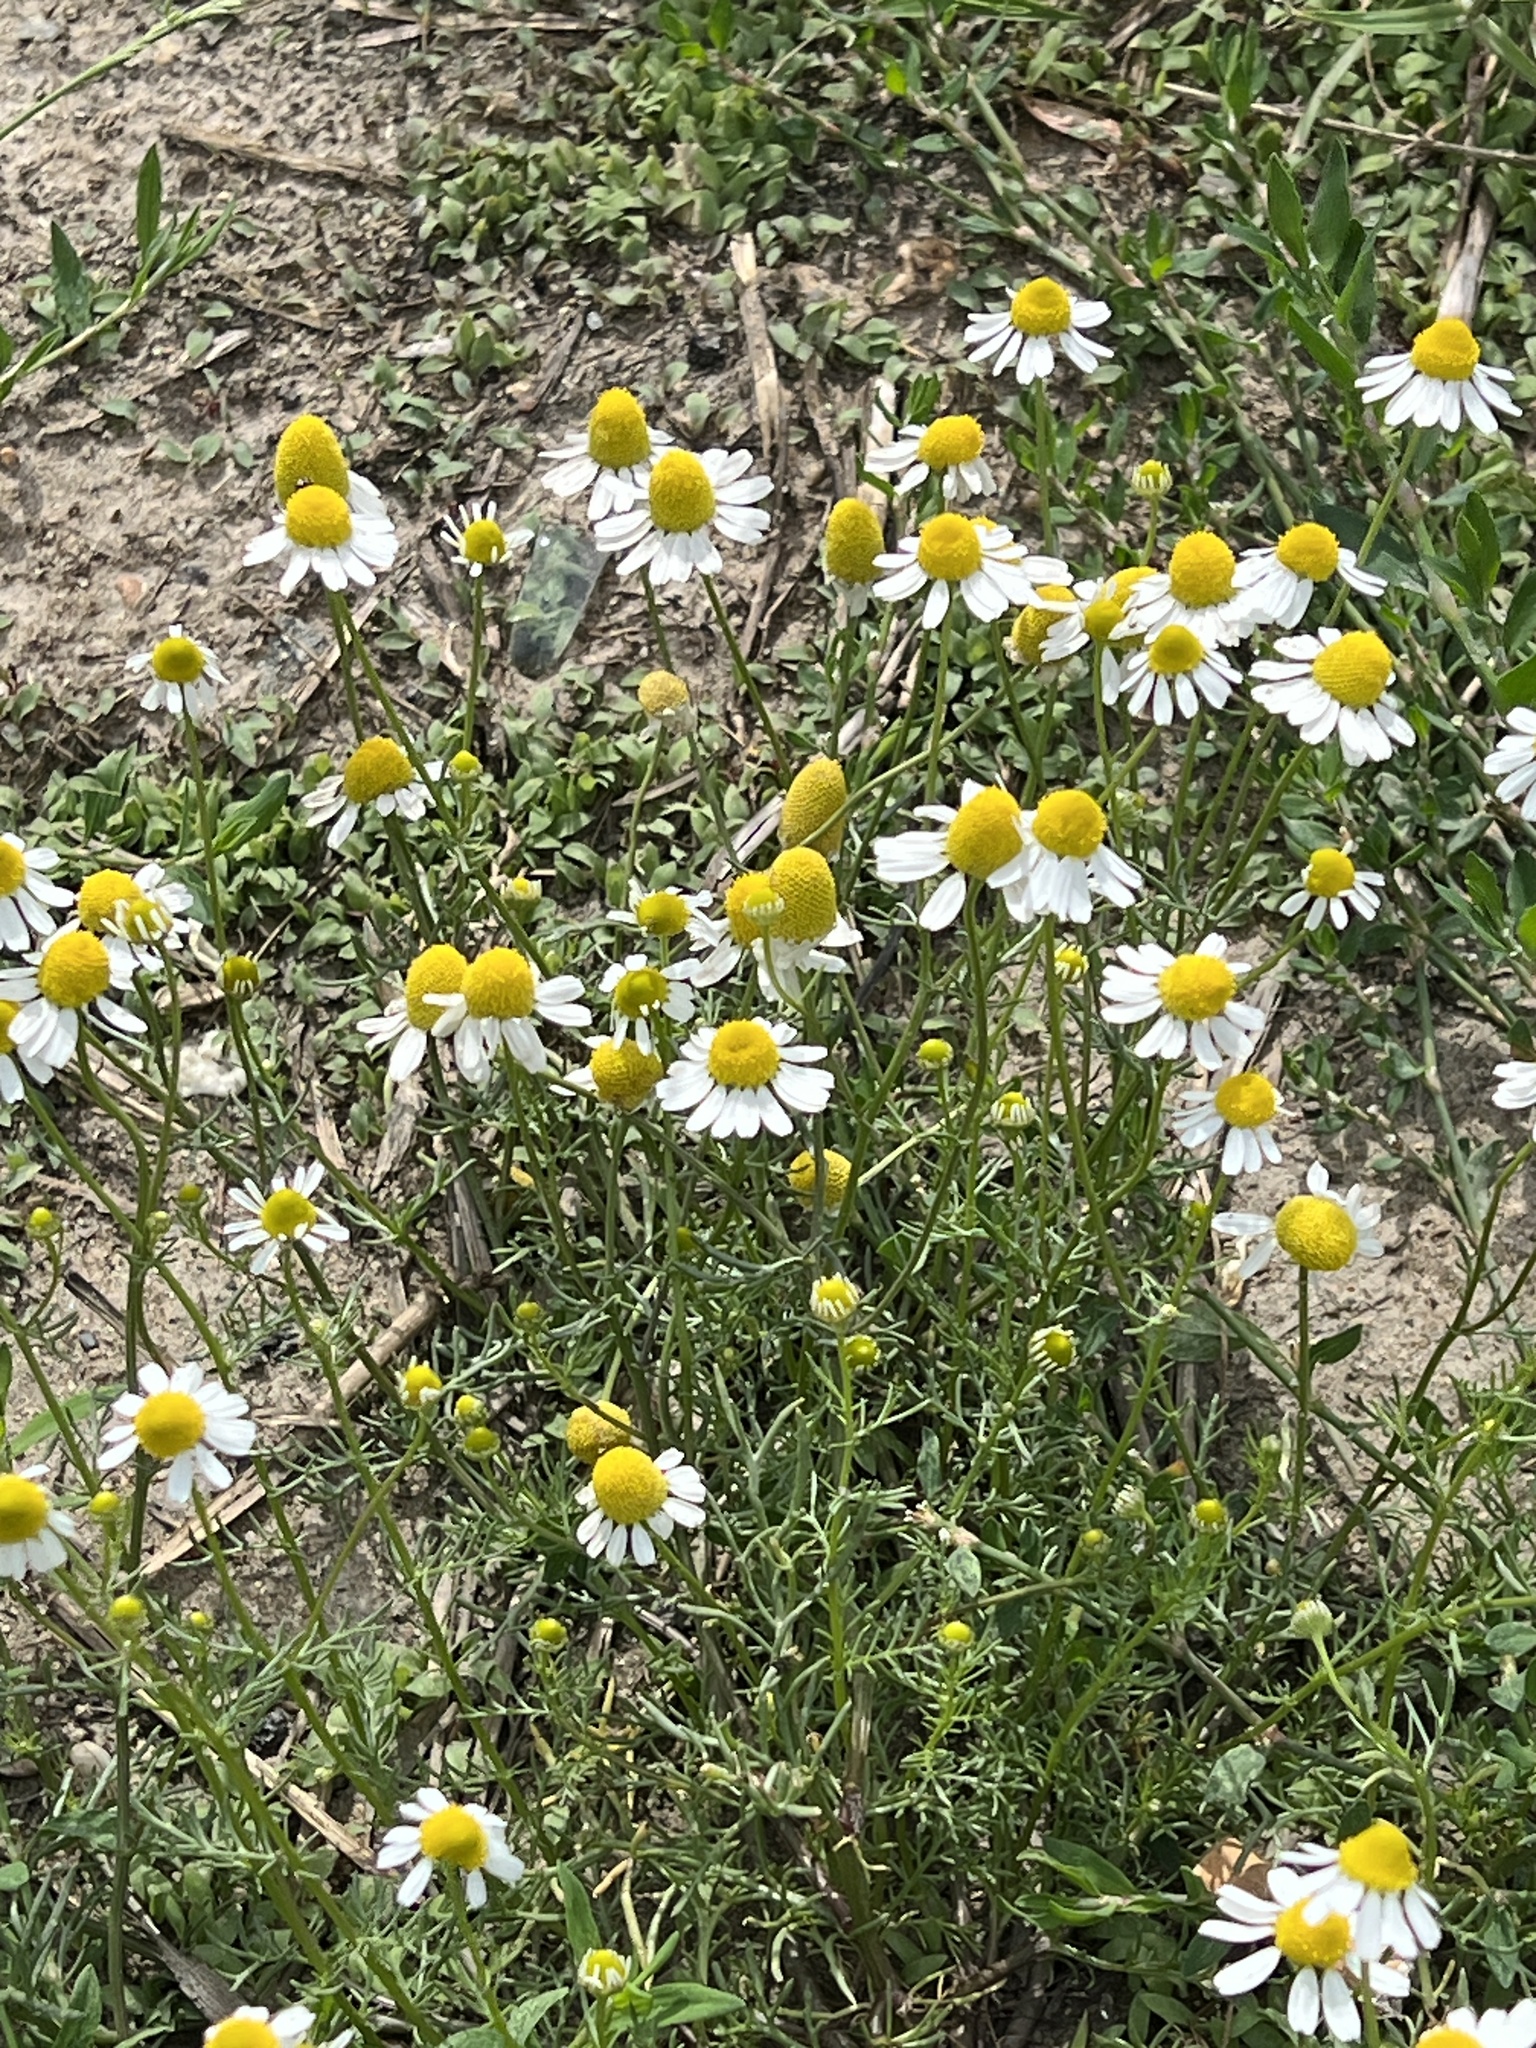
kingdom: Plantae
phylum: Tracheophyta
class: Magnoliopsida
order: Asterales
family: Asteraceae
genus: Matricaria
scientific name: Matricaria chamomilla
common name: Scented mayweed
